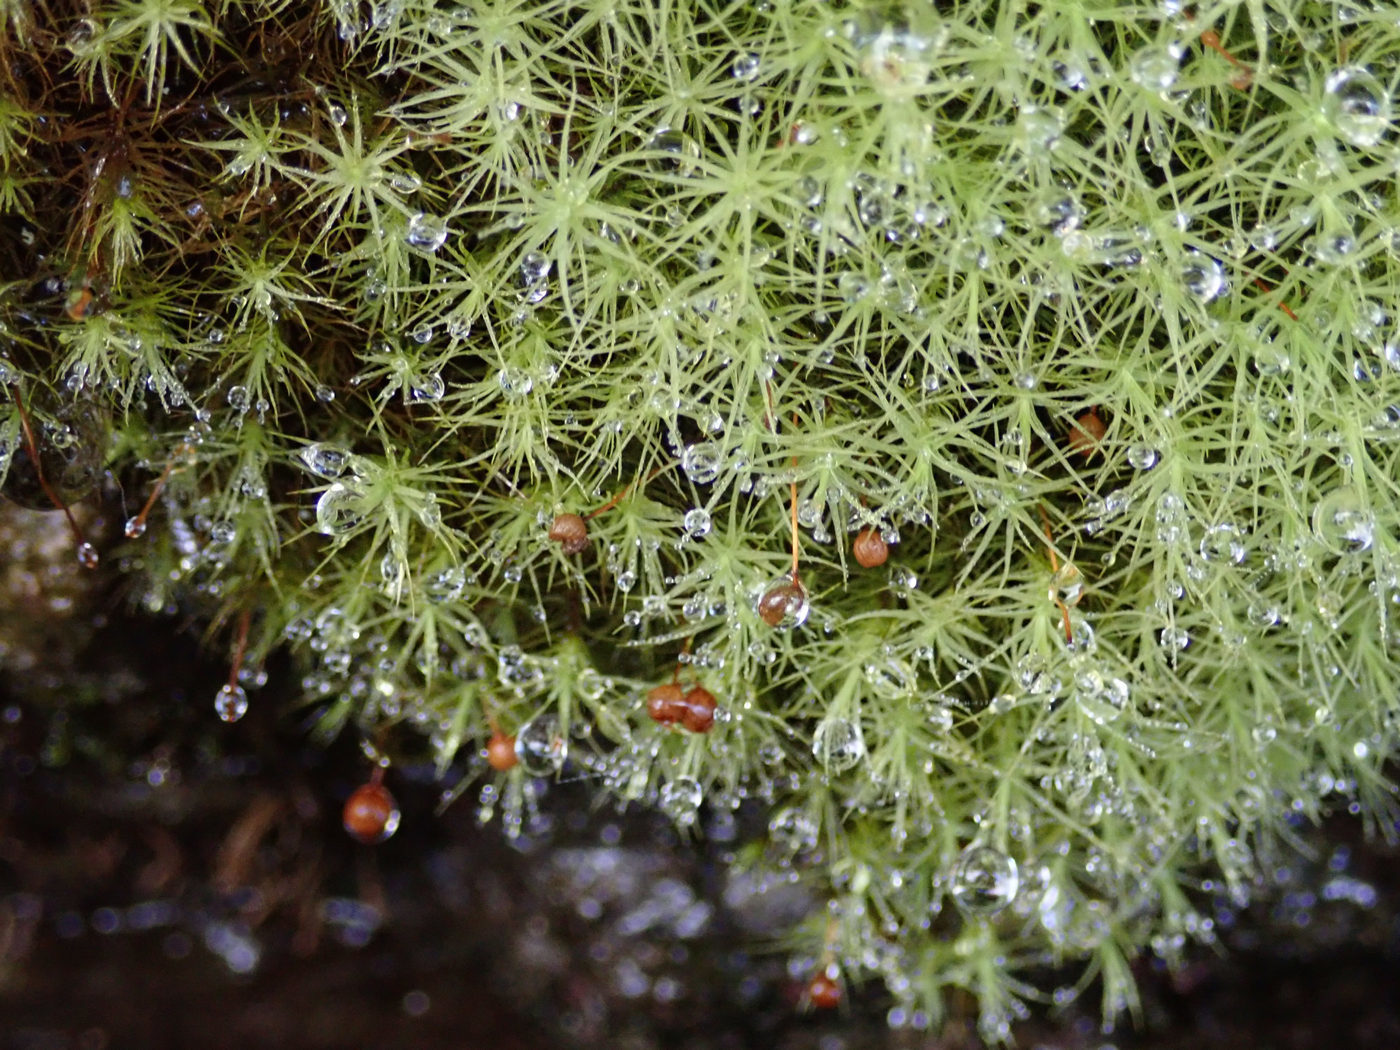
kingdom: Plantae
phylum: Bryophyta
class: Bryopsida
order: Bartramiales
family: Bartramiaceae
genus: Bartramia
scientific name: Bartramia ithyphylla
